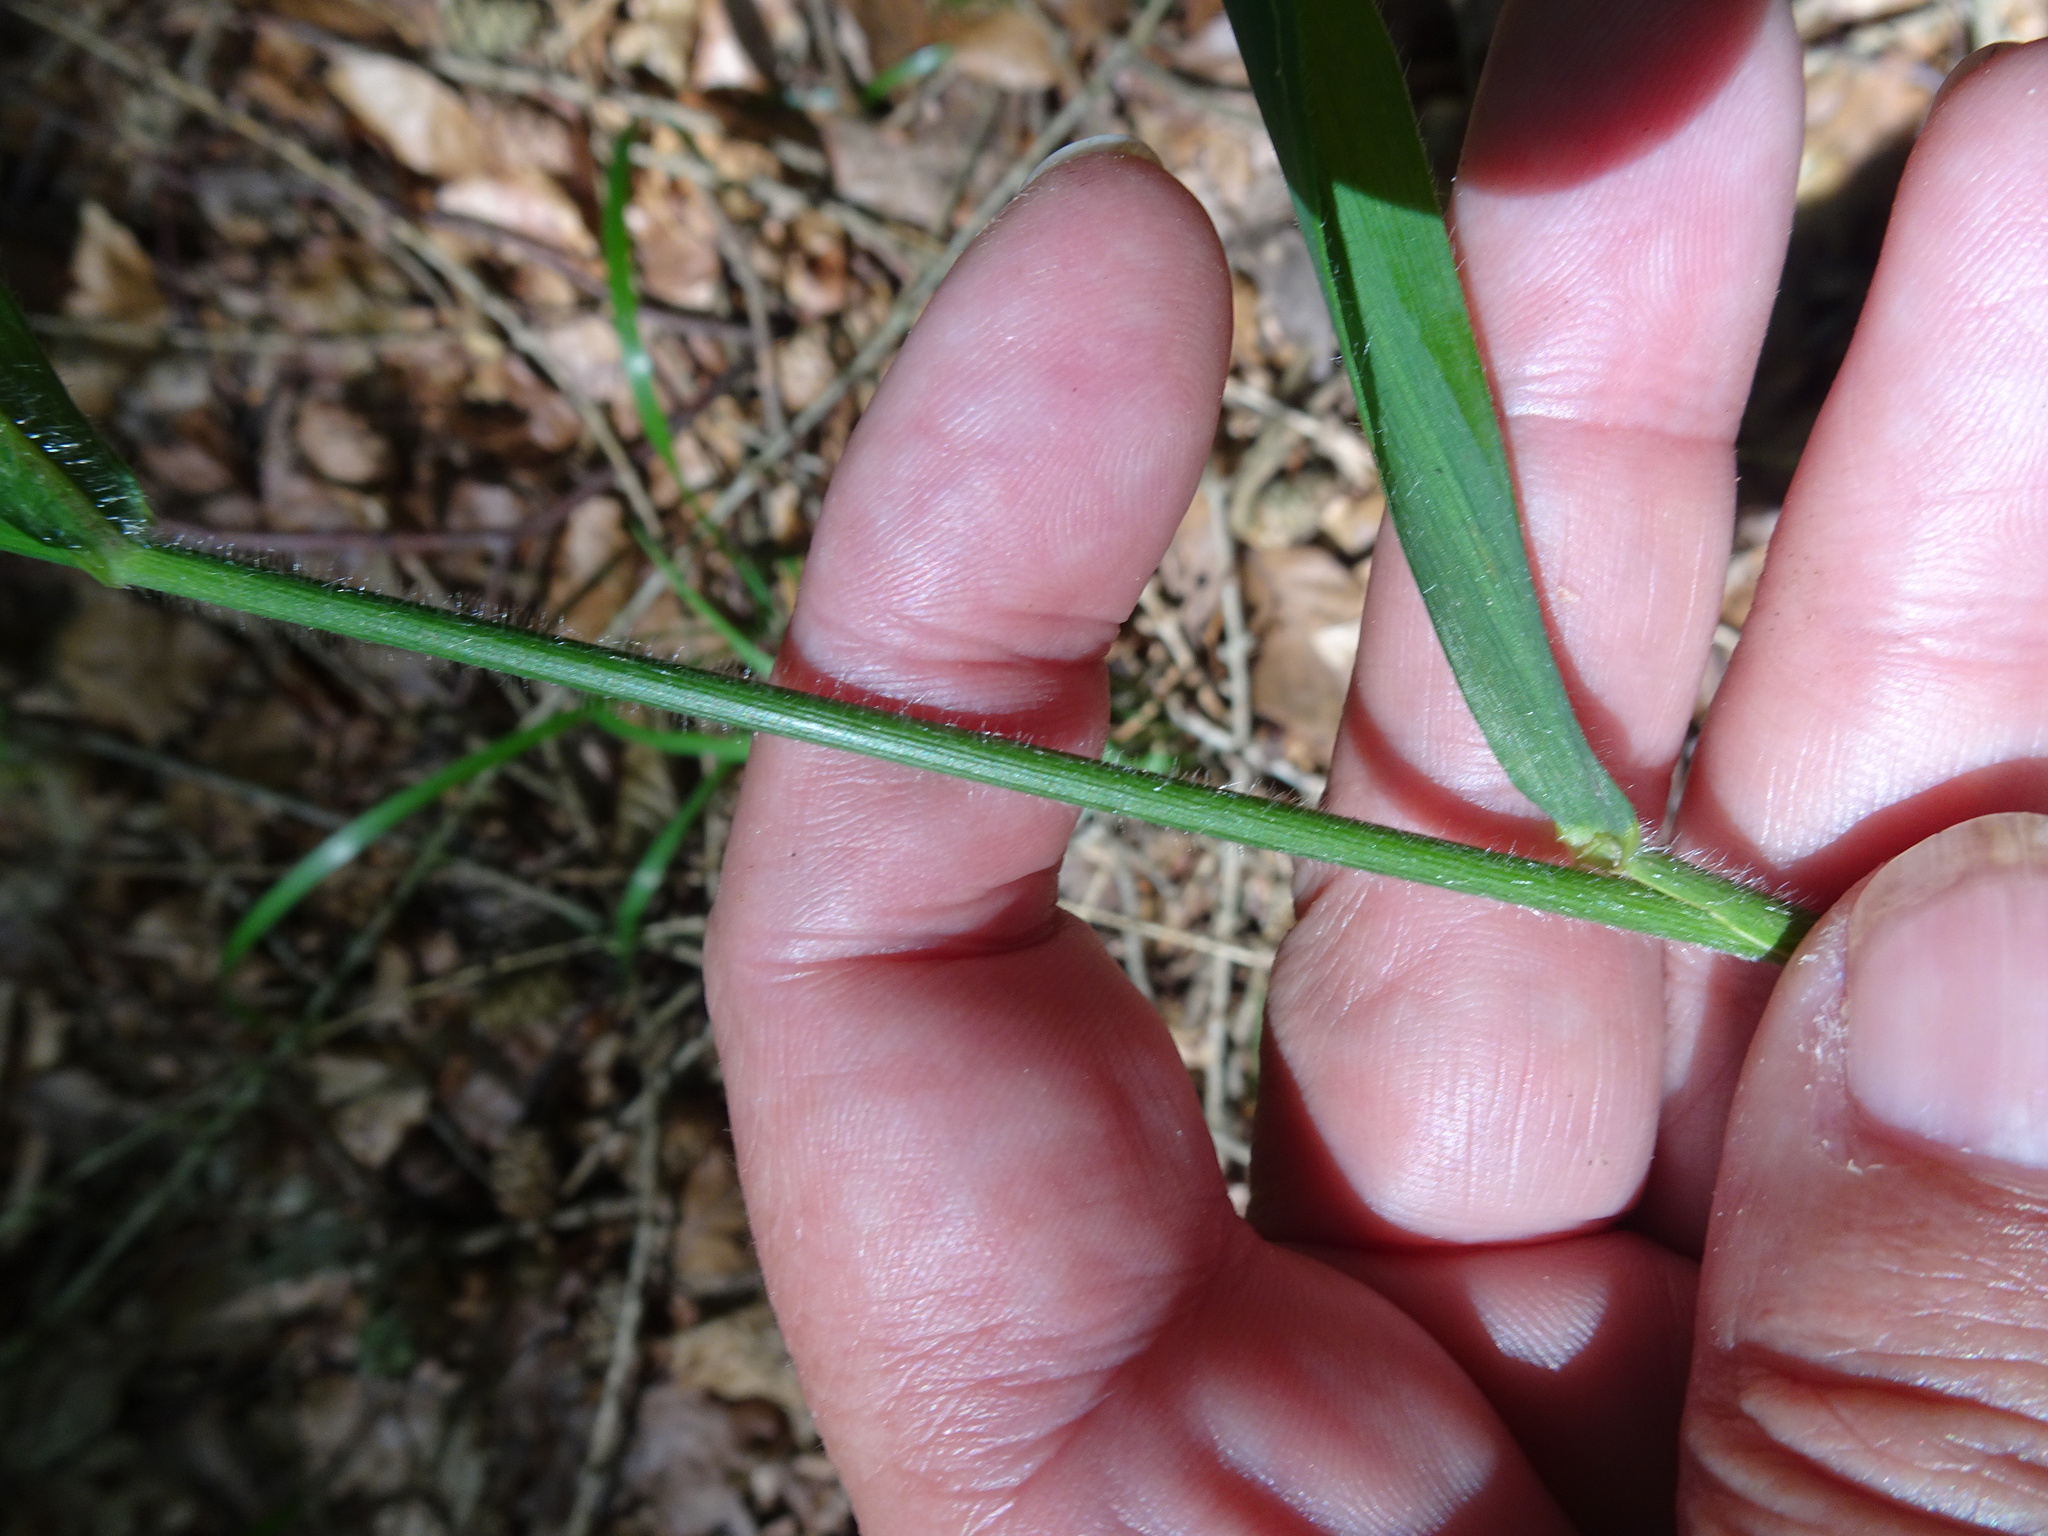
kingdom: Plantae
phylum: Tracheophyta
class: Liliopsida
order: Poales
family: Poaceae
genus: Hordelymus
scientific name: Hordelymus europaeus
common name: Wood-barley
